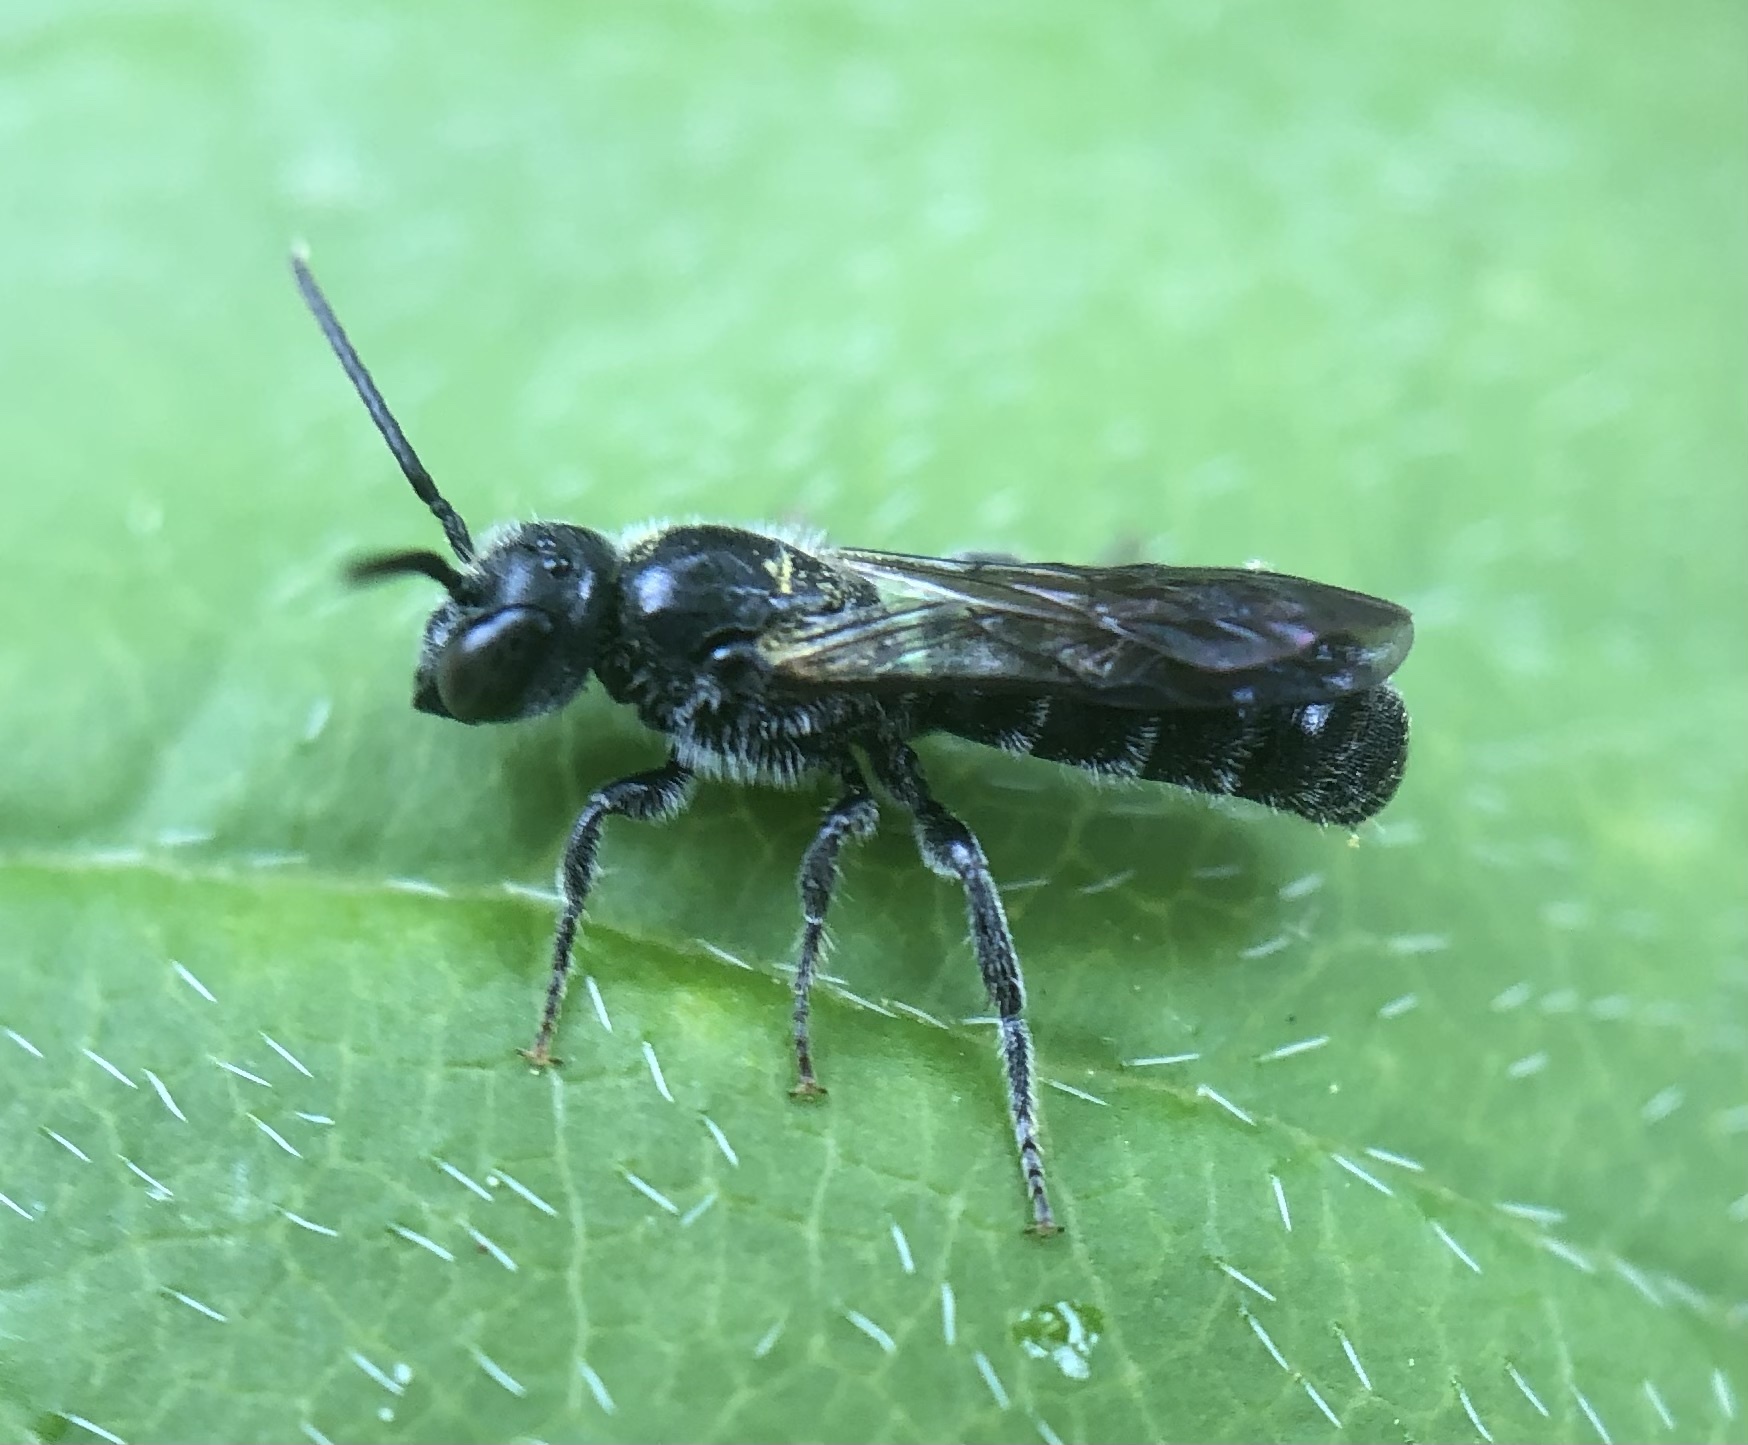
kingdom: Animalia
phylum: Arthropoda
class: Insecta
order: Hymenoptera
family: Megachilidae
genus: Chelostoma
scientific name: Chelostoma philadelphi
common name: Mock-orange scissor bee
